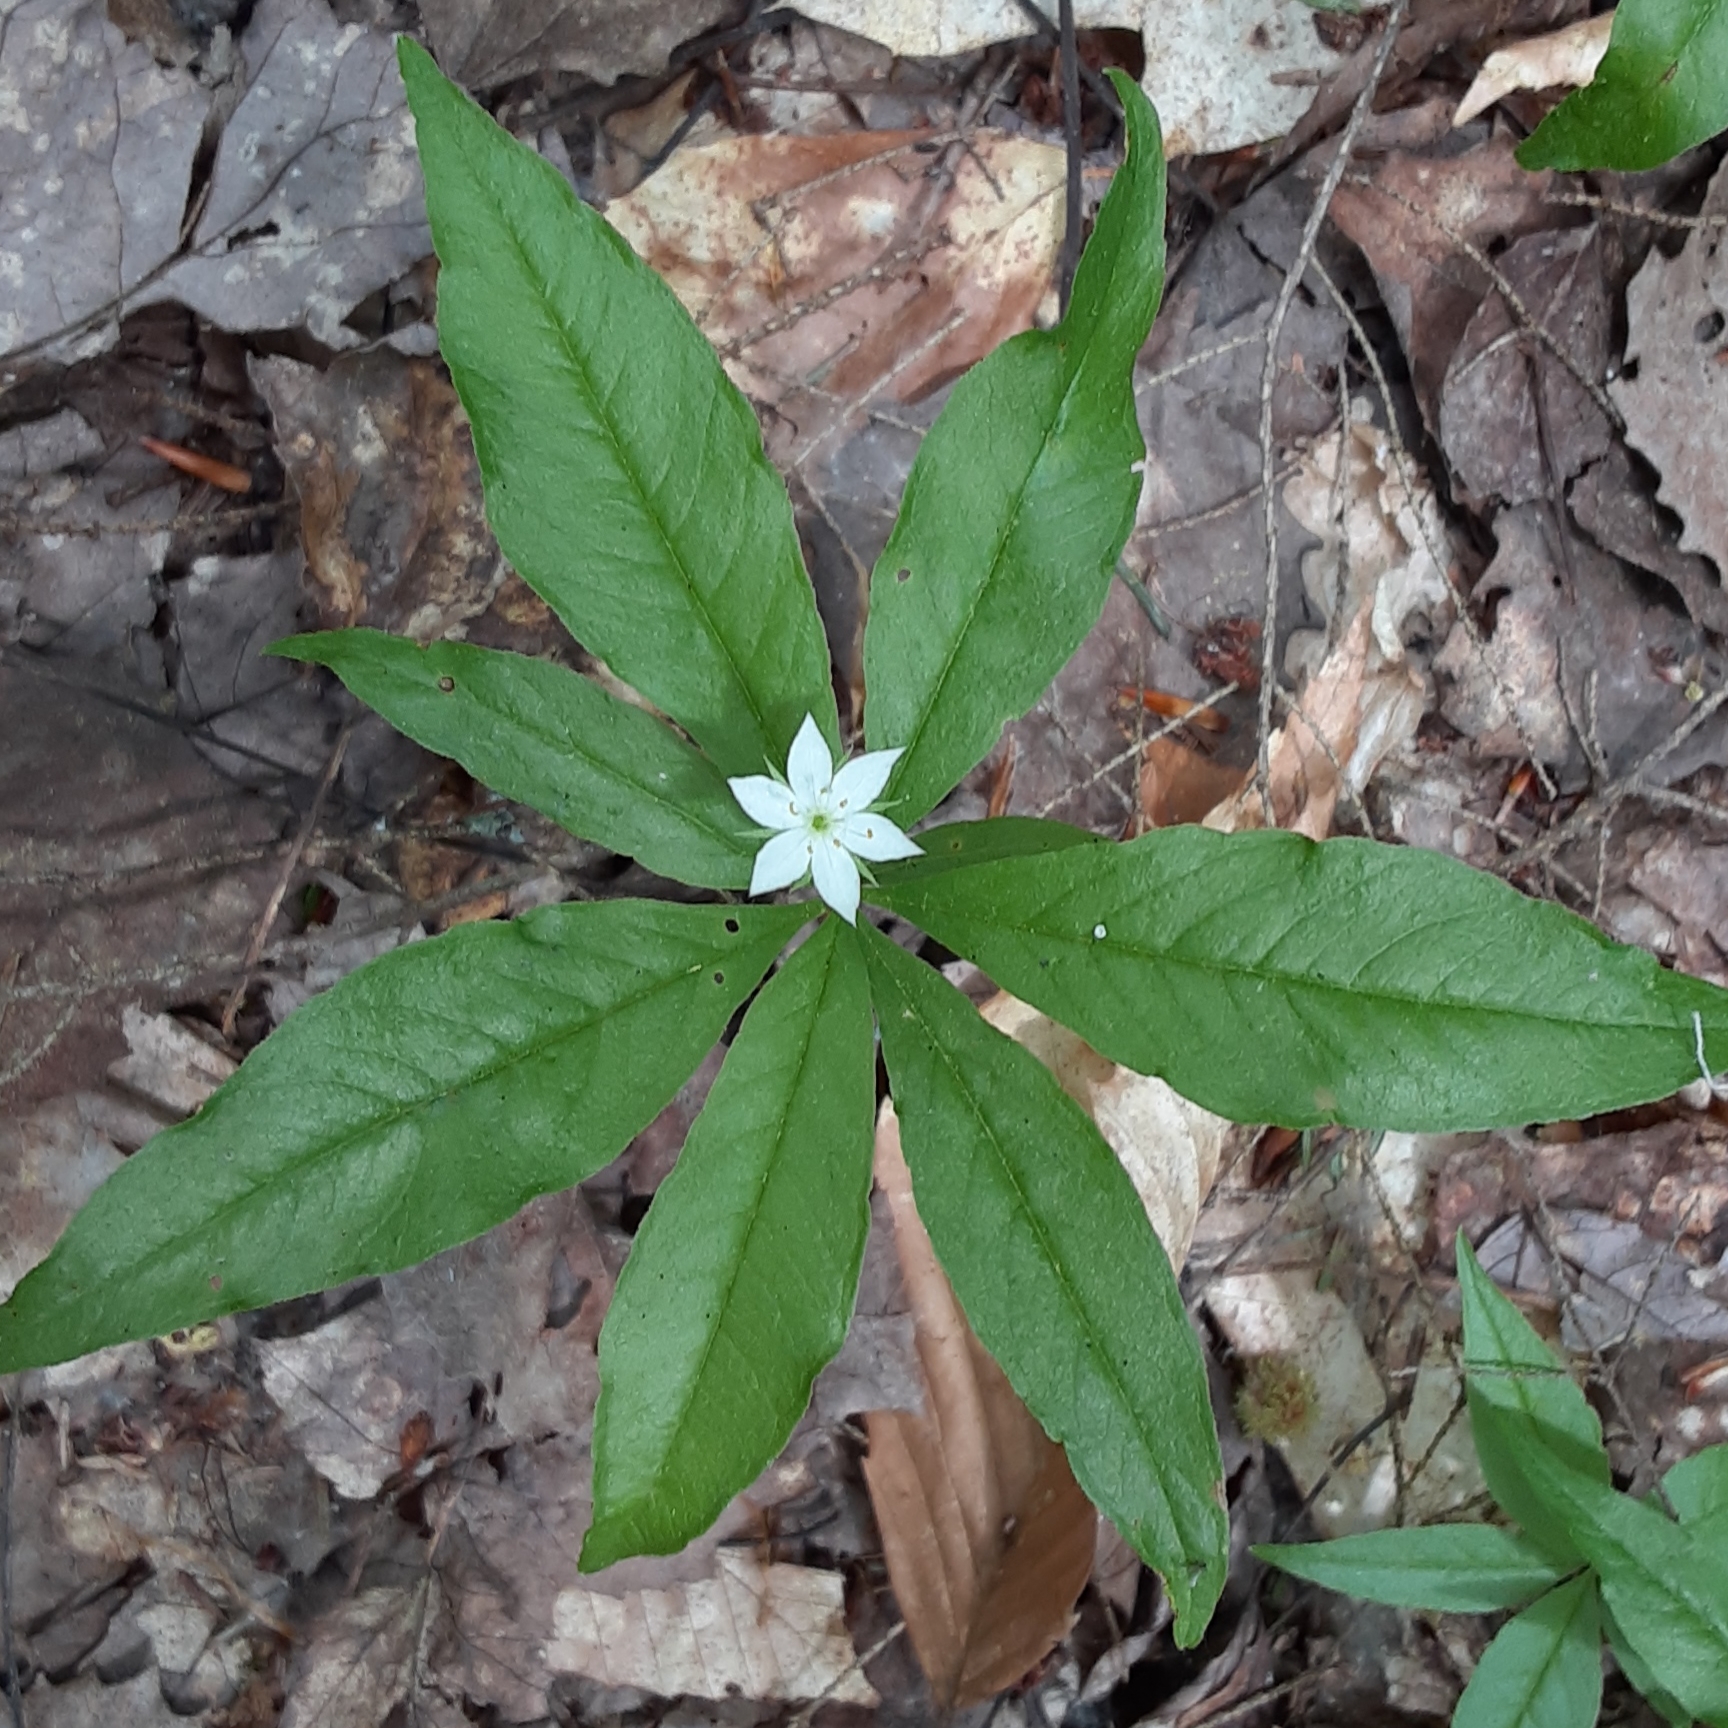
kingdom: Plantae
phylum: Tracheophyta
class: Magnoliopsida
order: Ericales
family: Primulaceae
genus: Lysimachia
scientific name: Lysimachia borealis
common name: American starflower
